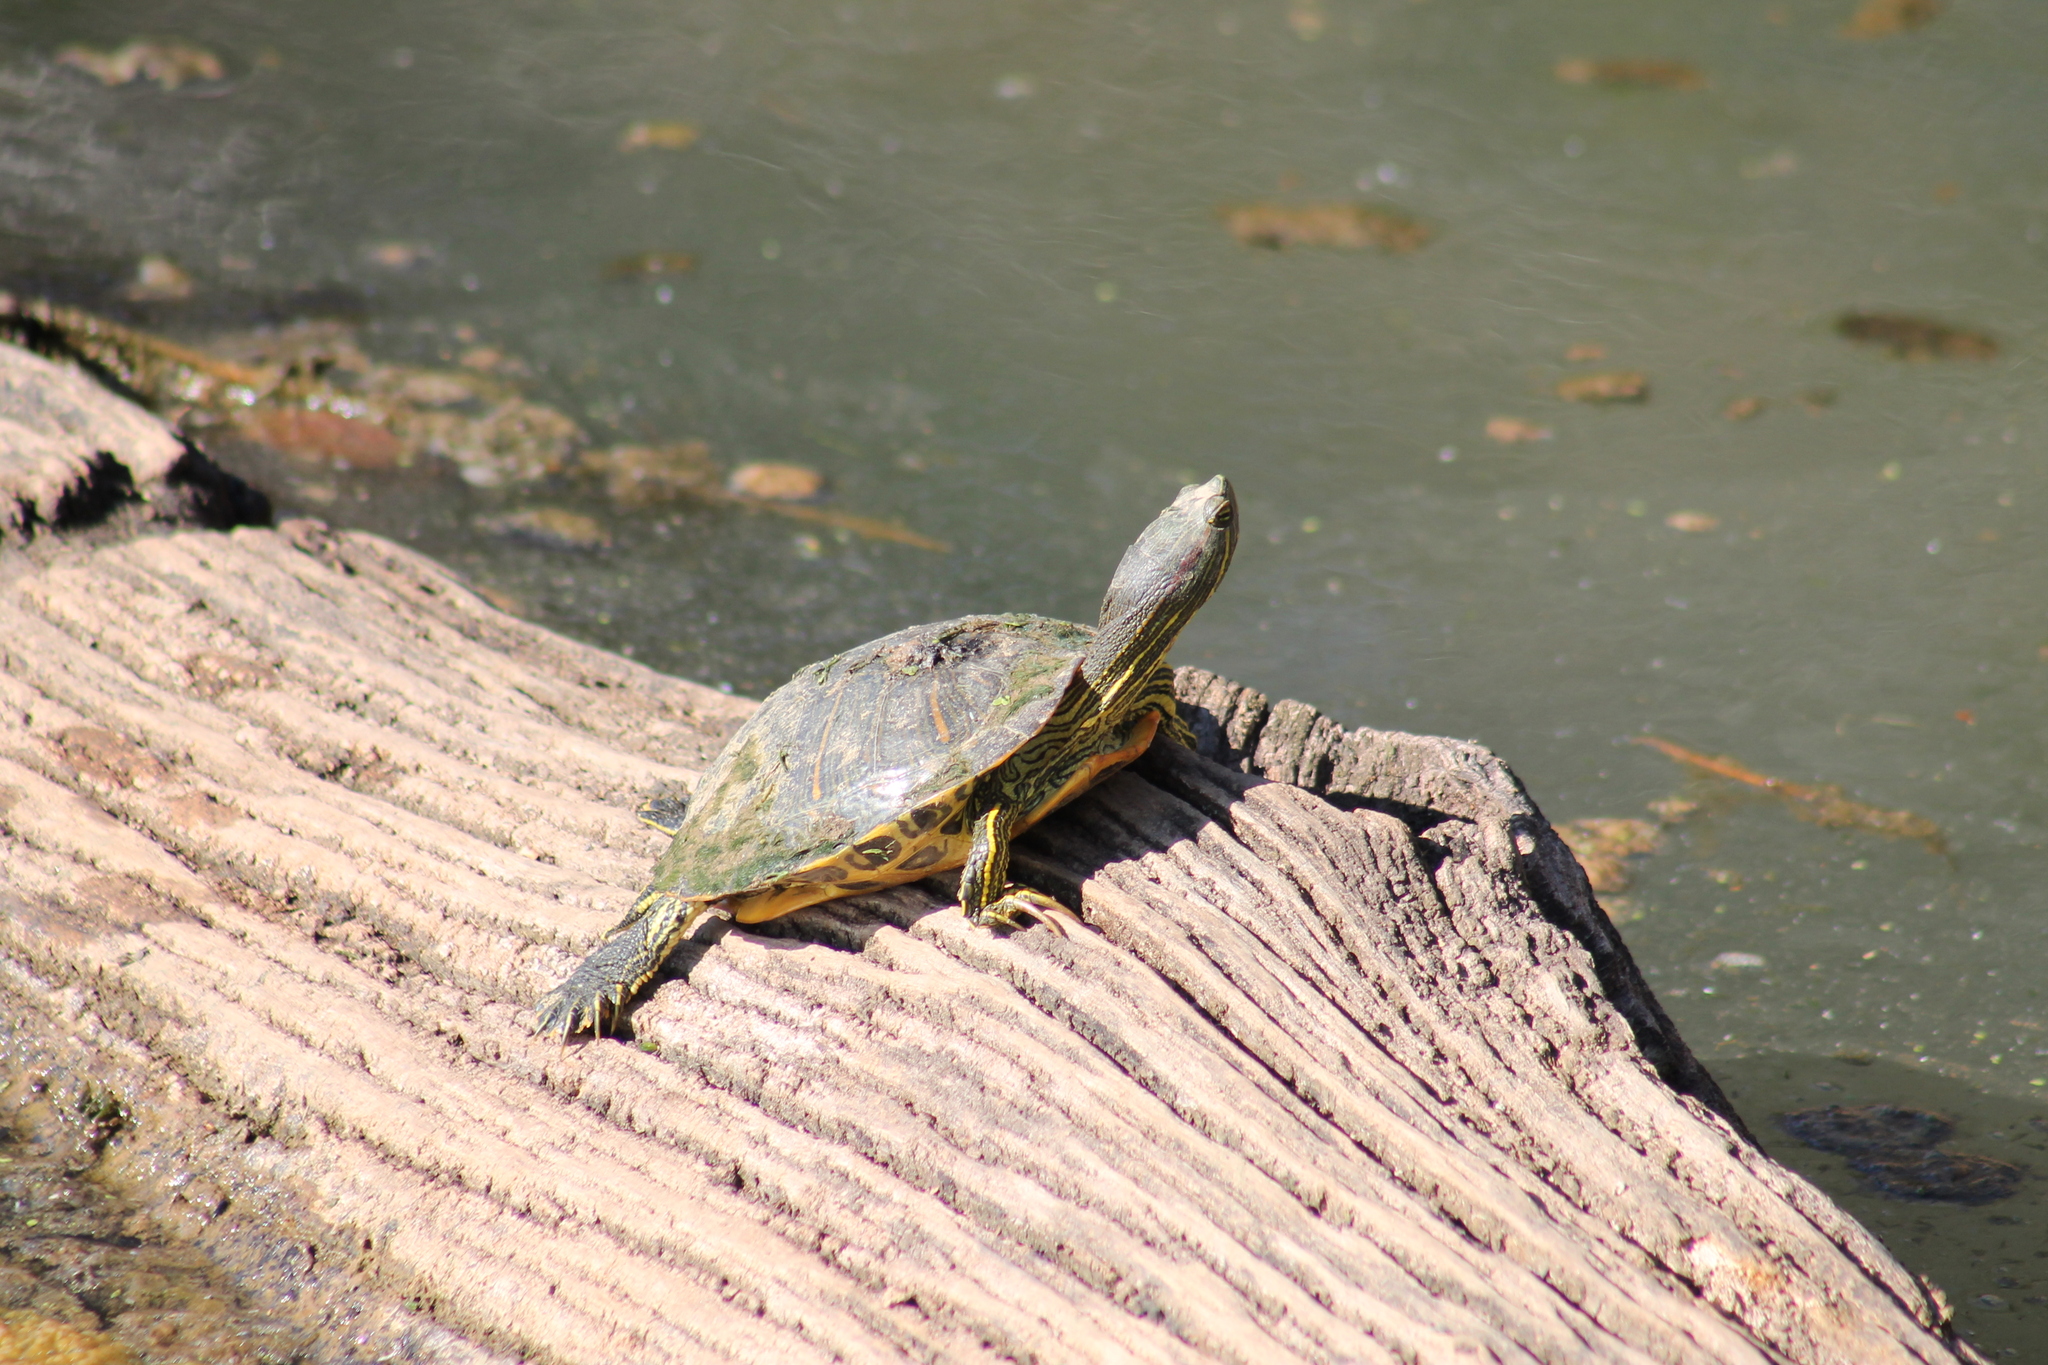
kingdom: Animalia
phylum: Chordata
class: Testudines
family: Emydidae
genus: Trachemys
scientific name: Trachemys scripta
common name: Slider
